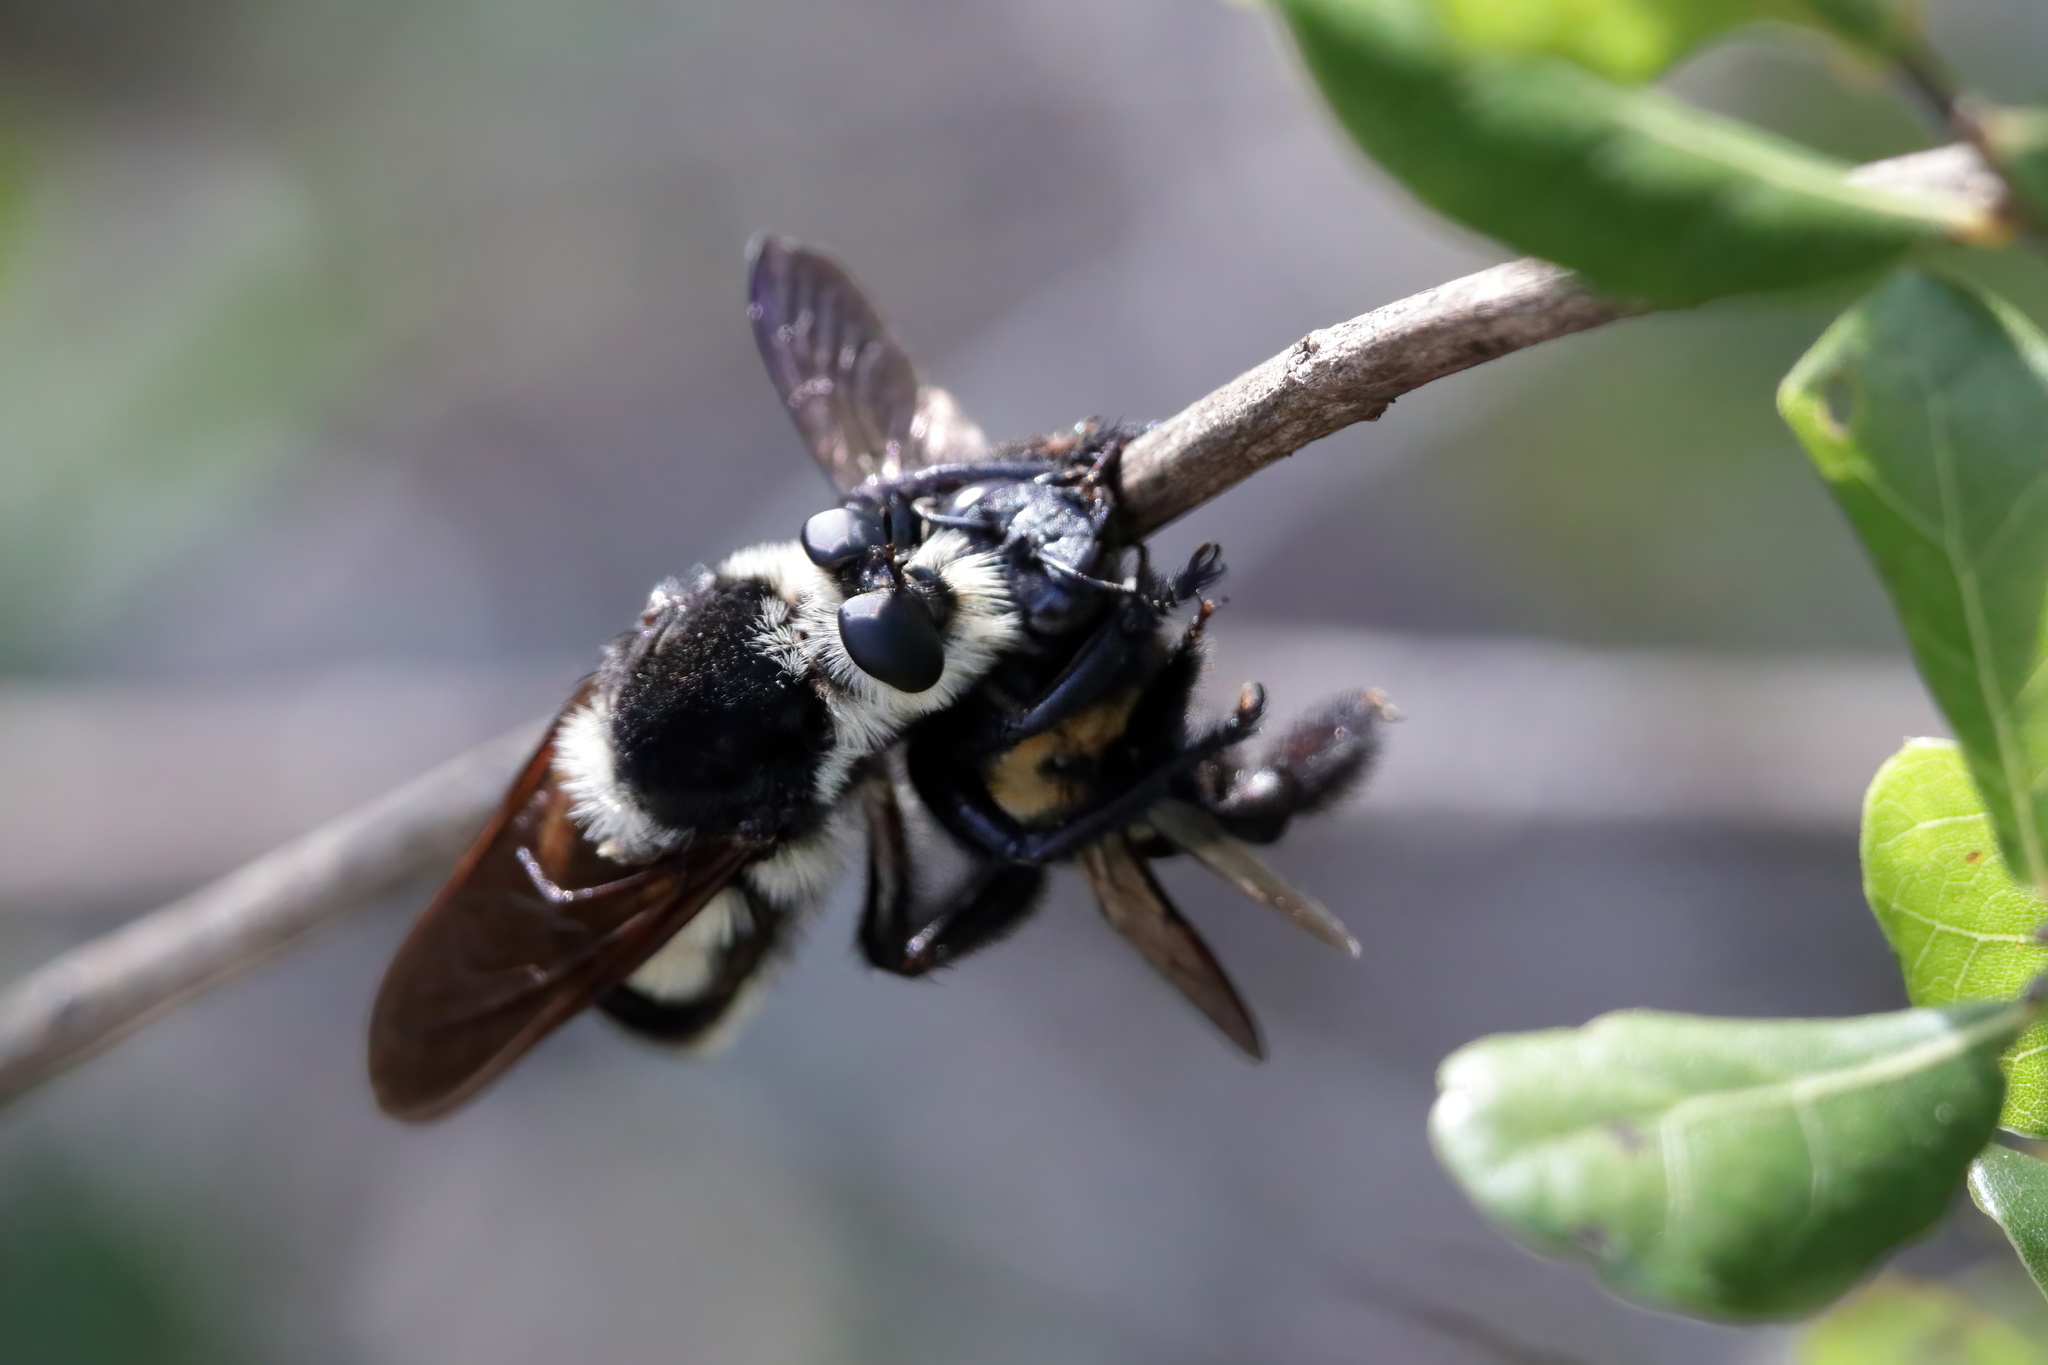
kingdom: Animalia
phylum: Arthropoda
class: Insecta
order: Diptera
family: Asilidae
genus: Mallophora
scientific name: Mallophora bomboides
